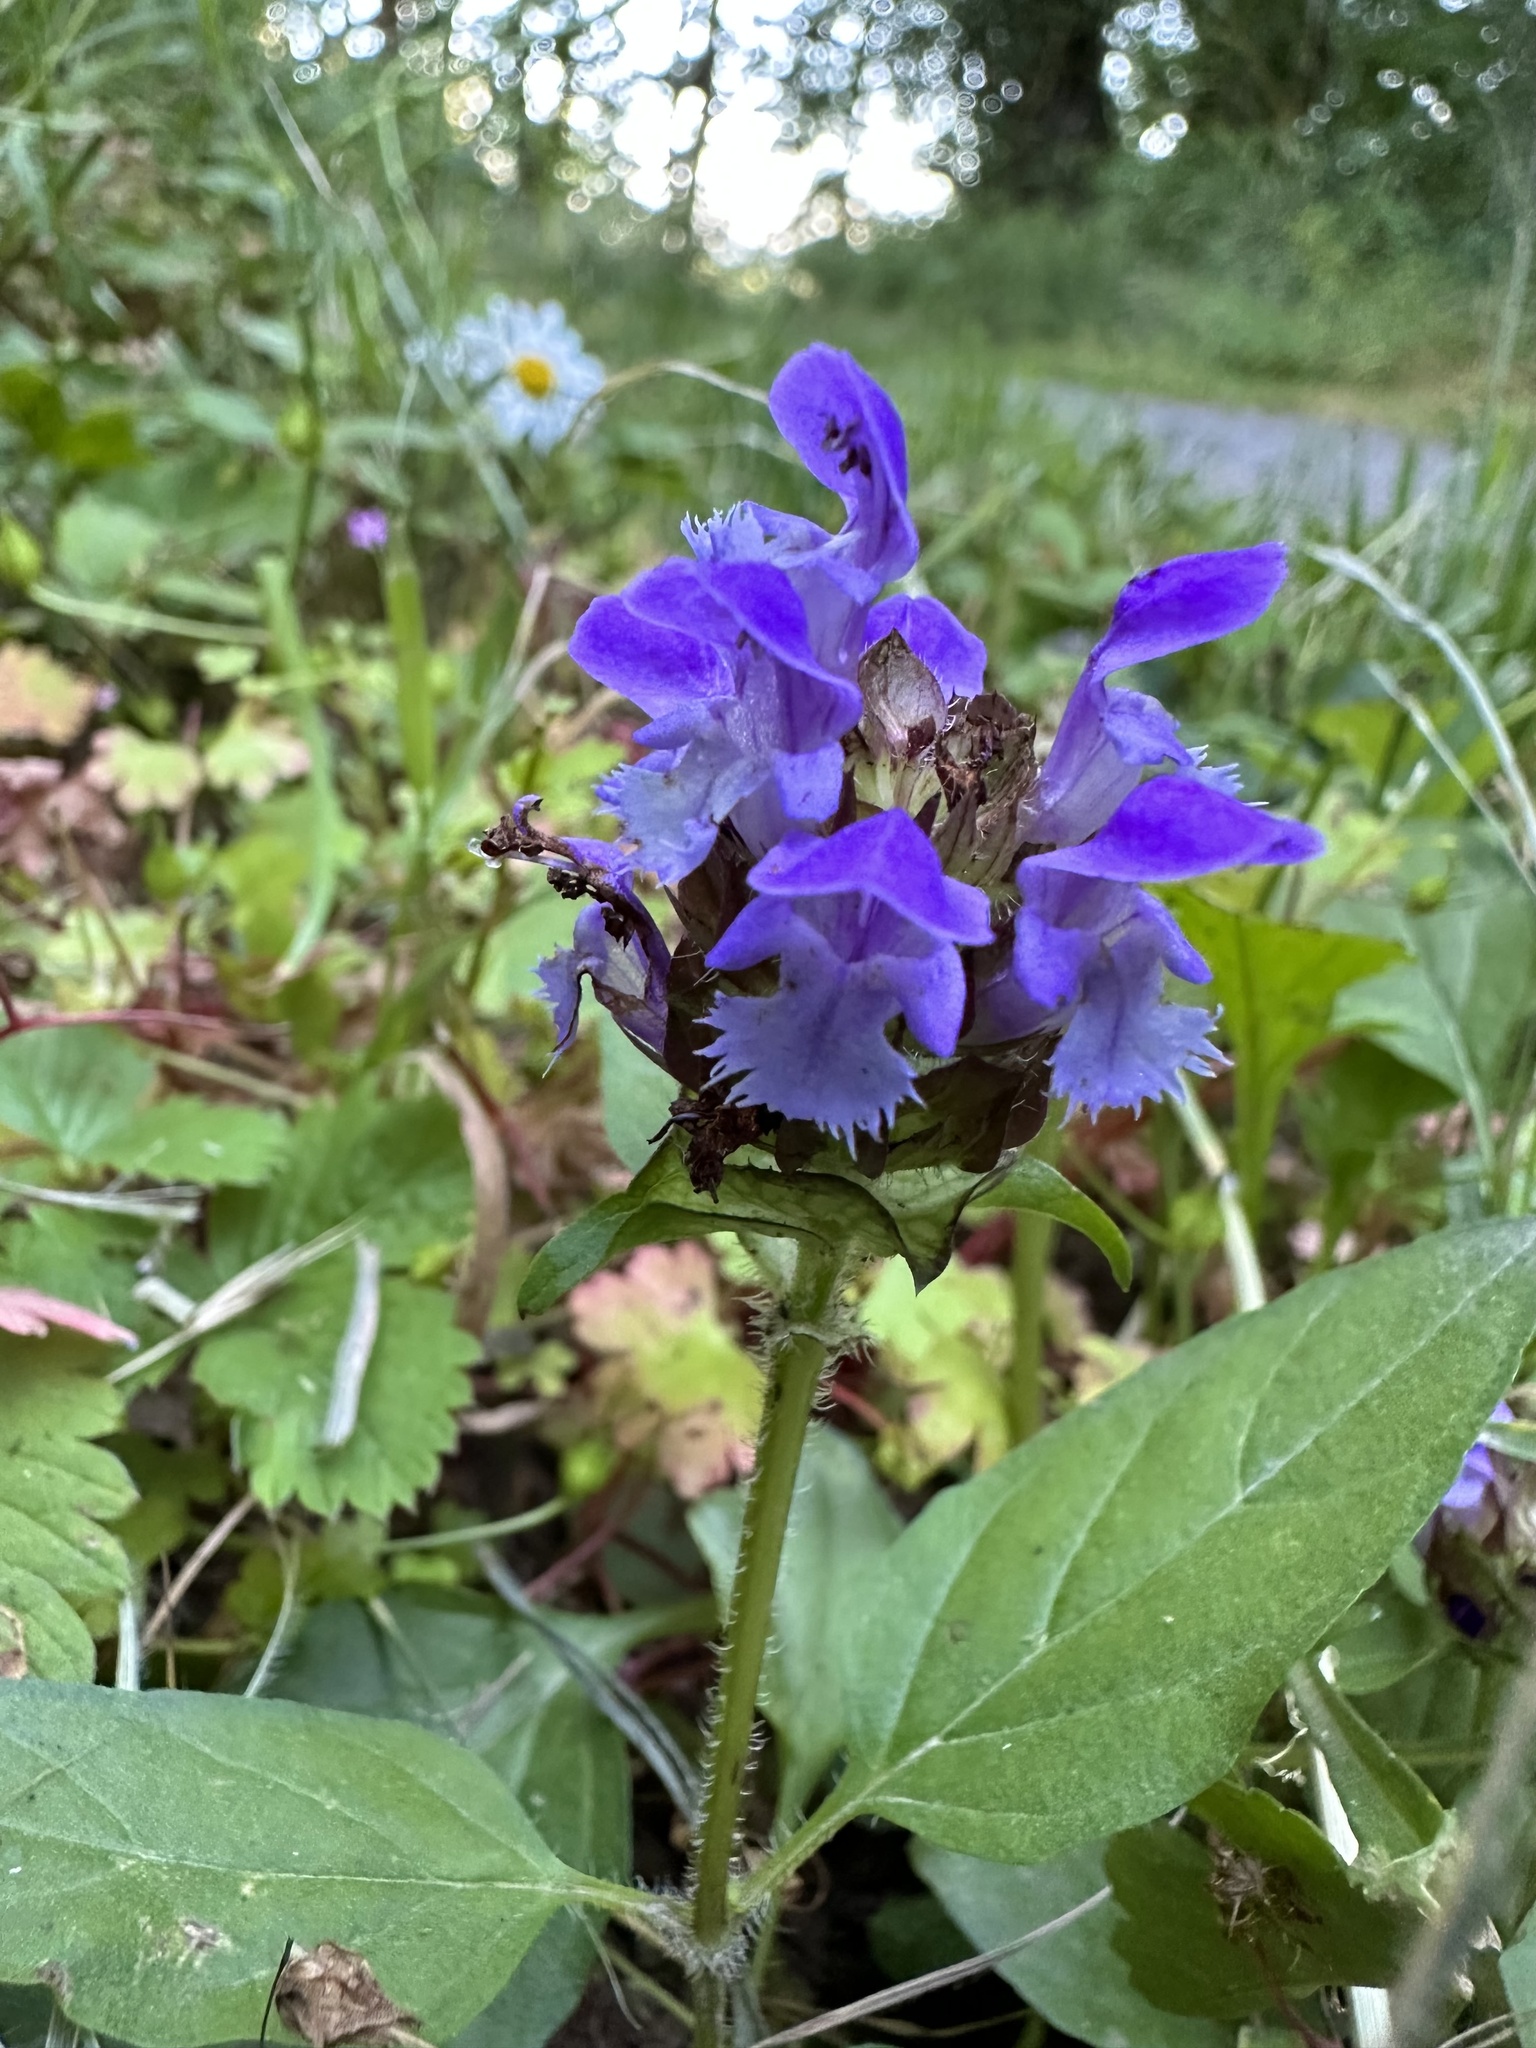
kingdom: Plantae
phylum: Tracheophyta
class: Magnoliopsida
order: Lamiales
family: Lamiaceae
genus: Prunella
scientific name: Prunella vulgaris
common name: Heal-all
